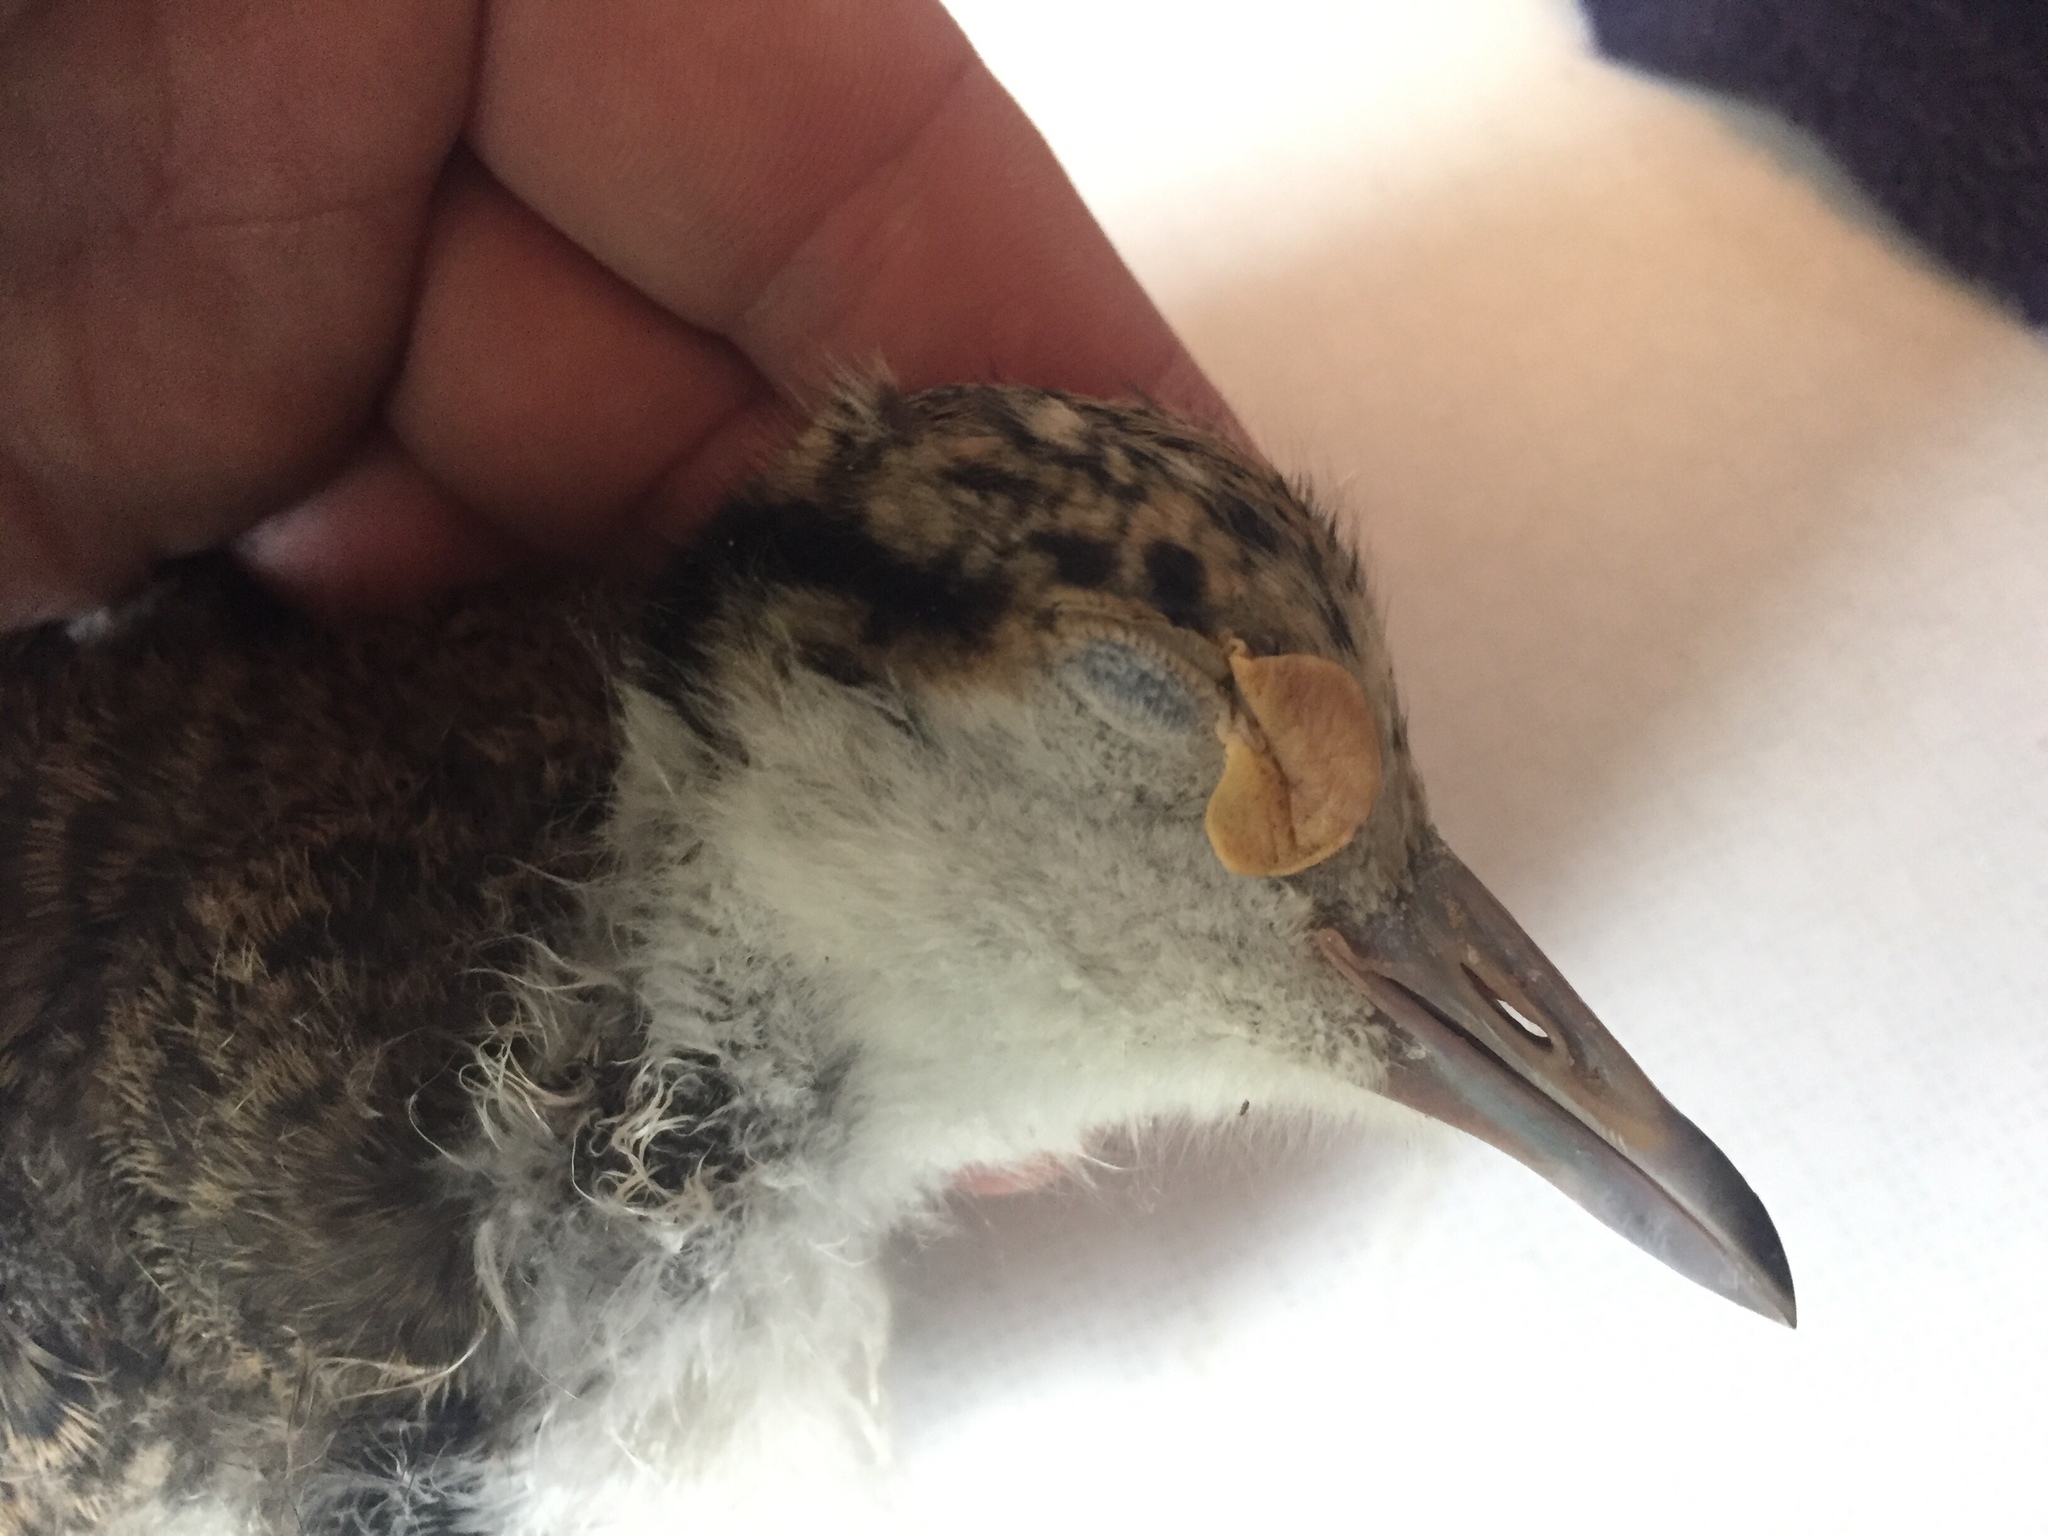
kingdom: Animalia
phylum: Chordata
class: Aves
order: Charadriiformes
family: Charadriidae
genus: Vanellus
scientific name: Vanellus miles
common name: Masked lapwing
